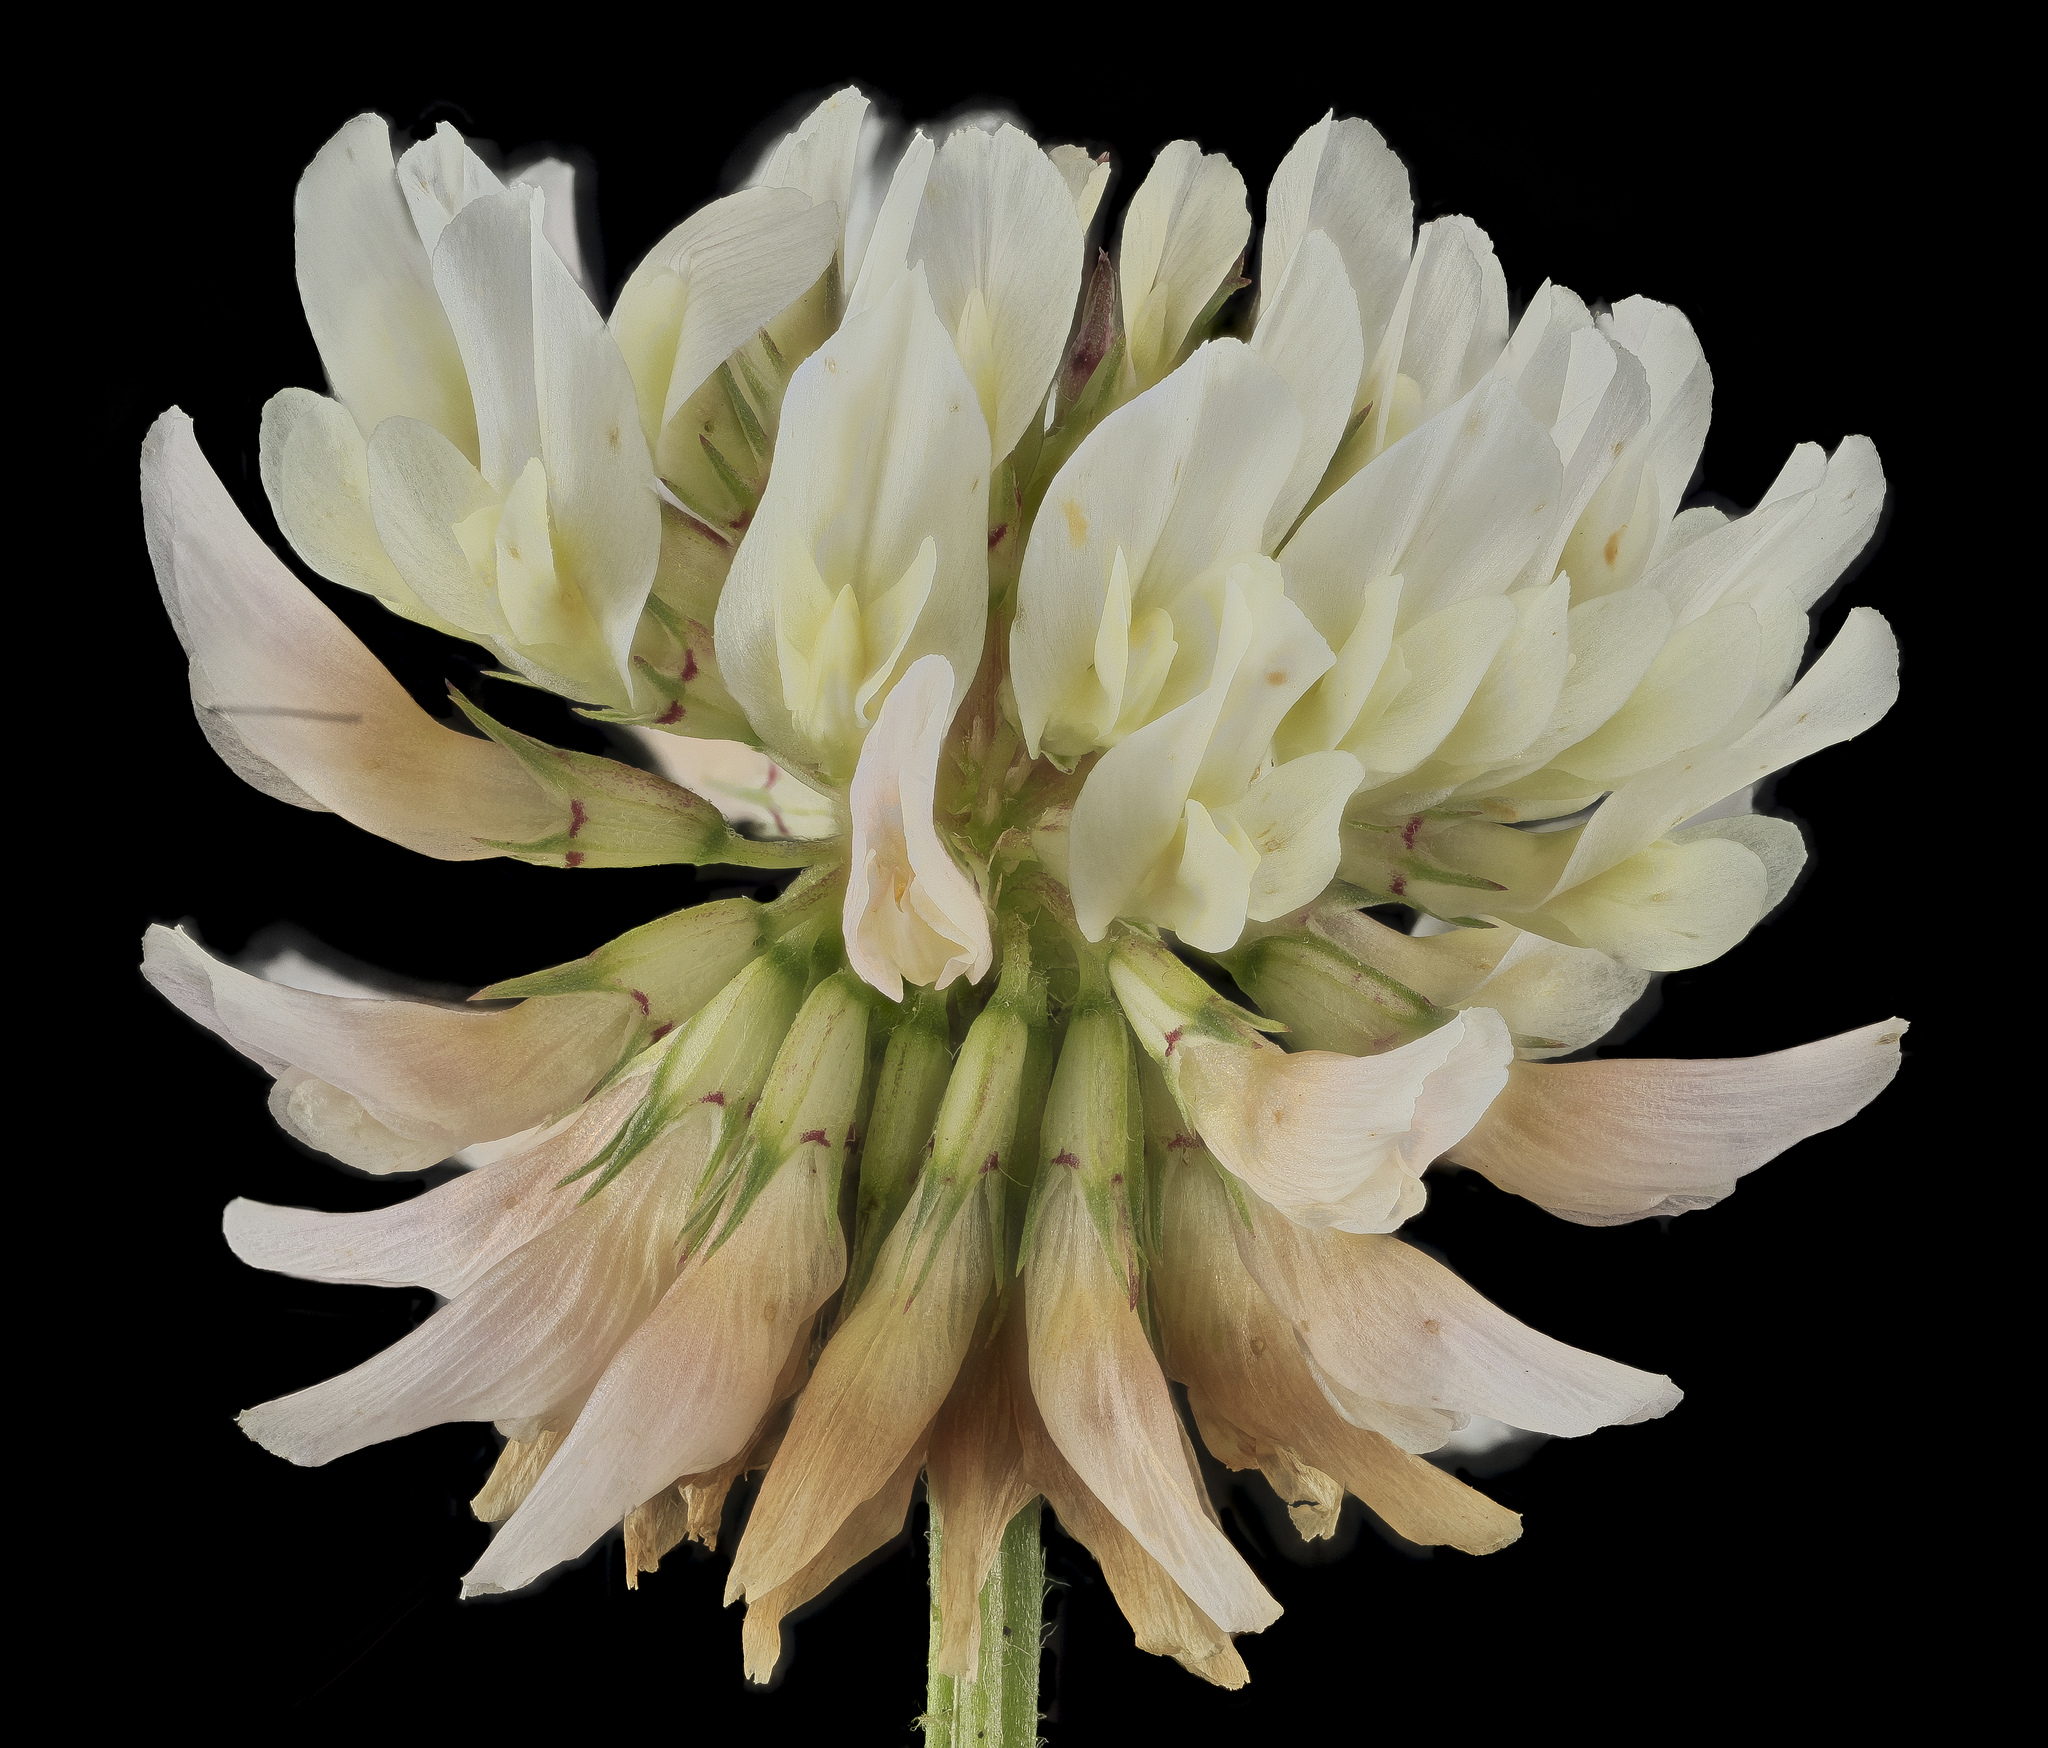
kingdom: Plantae
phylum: Tracheophyta
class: Magnoliopsida
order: Fabales
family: Fabaceae
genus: Trifolium
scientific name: Trifolium repens
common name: White clover
